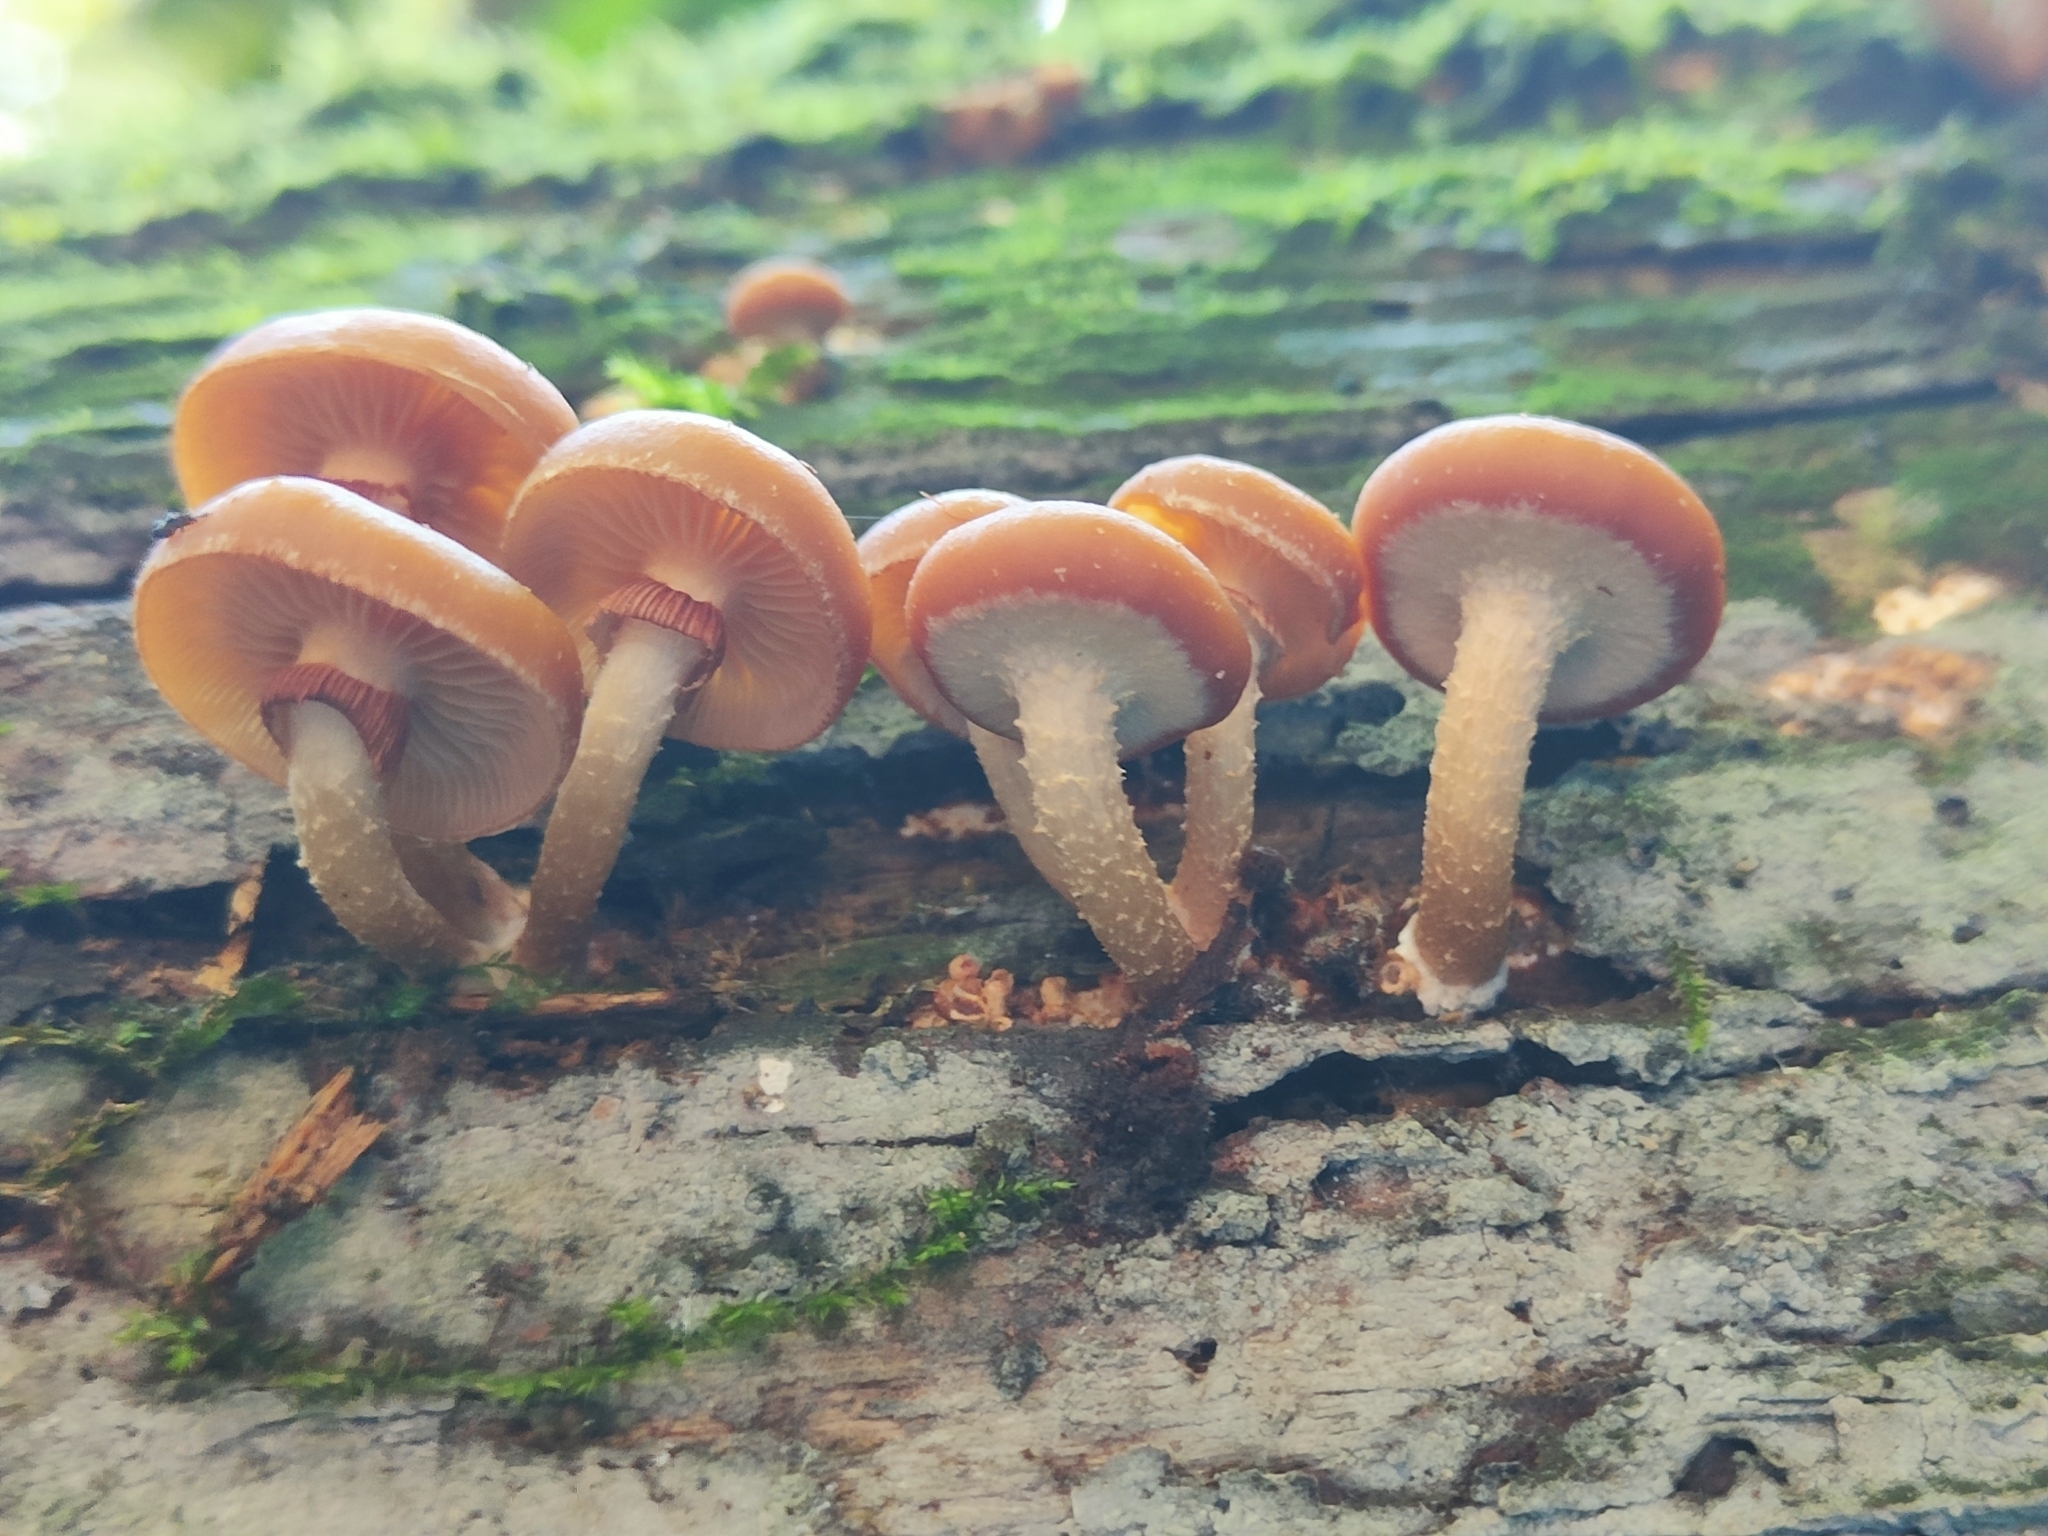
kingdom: Fungi
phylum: Basidiomycota
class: Agaricomycetes
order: Agaricales
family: Strophariaceae
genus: Kuehneromyces
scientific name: Kuehneromyces mutabilis
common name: Sheathed woodtuft
